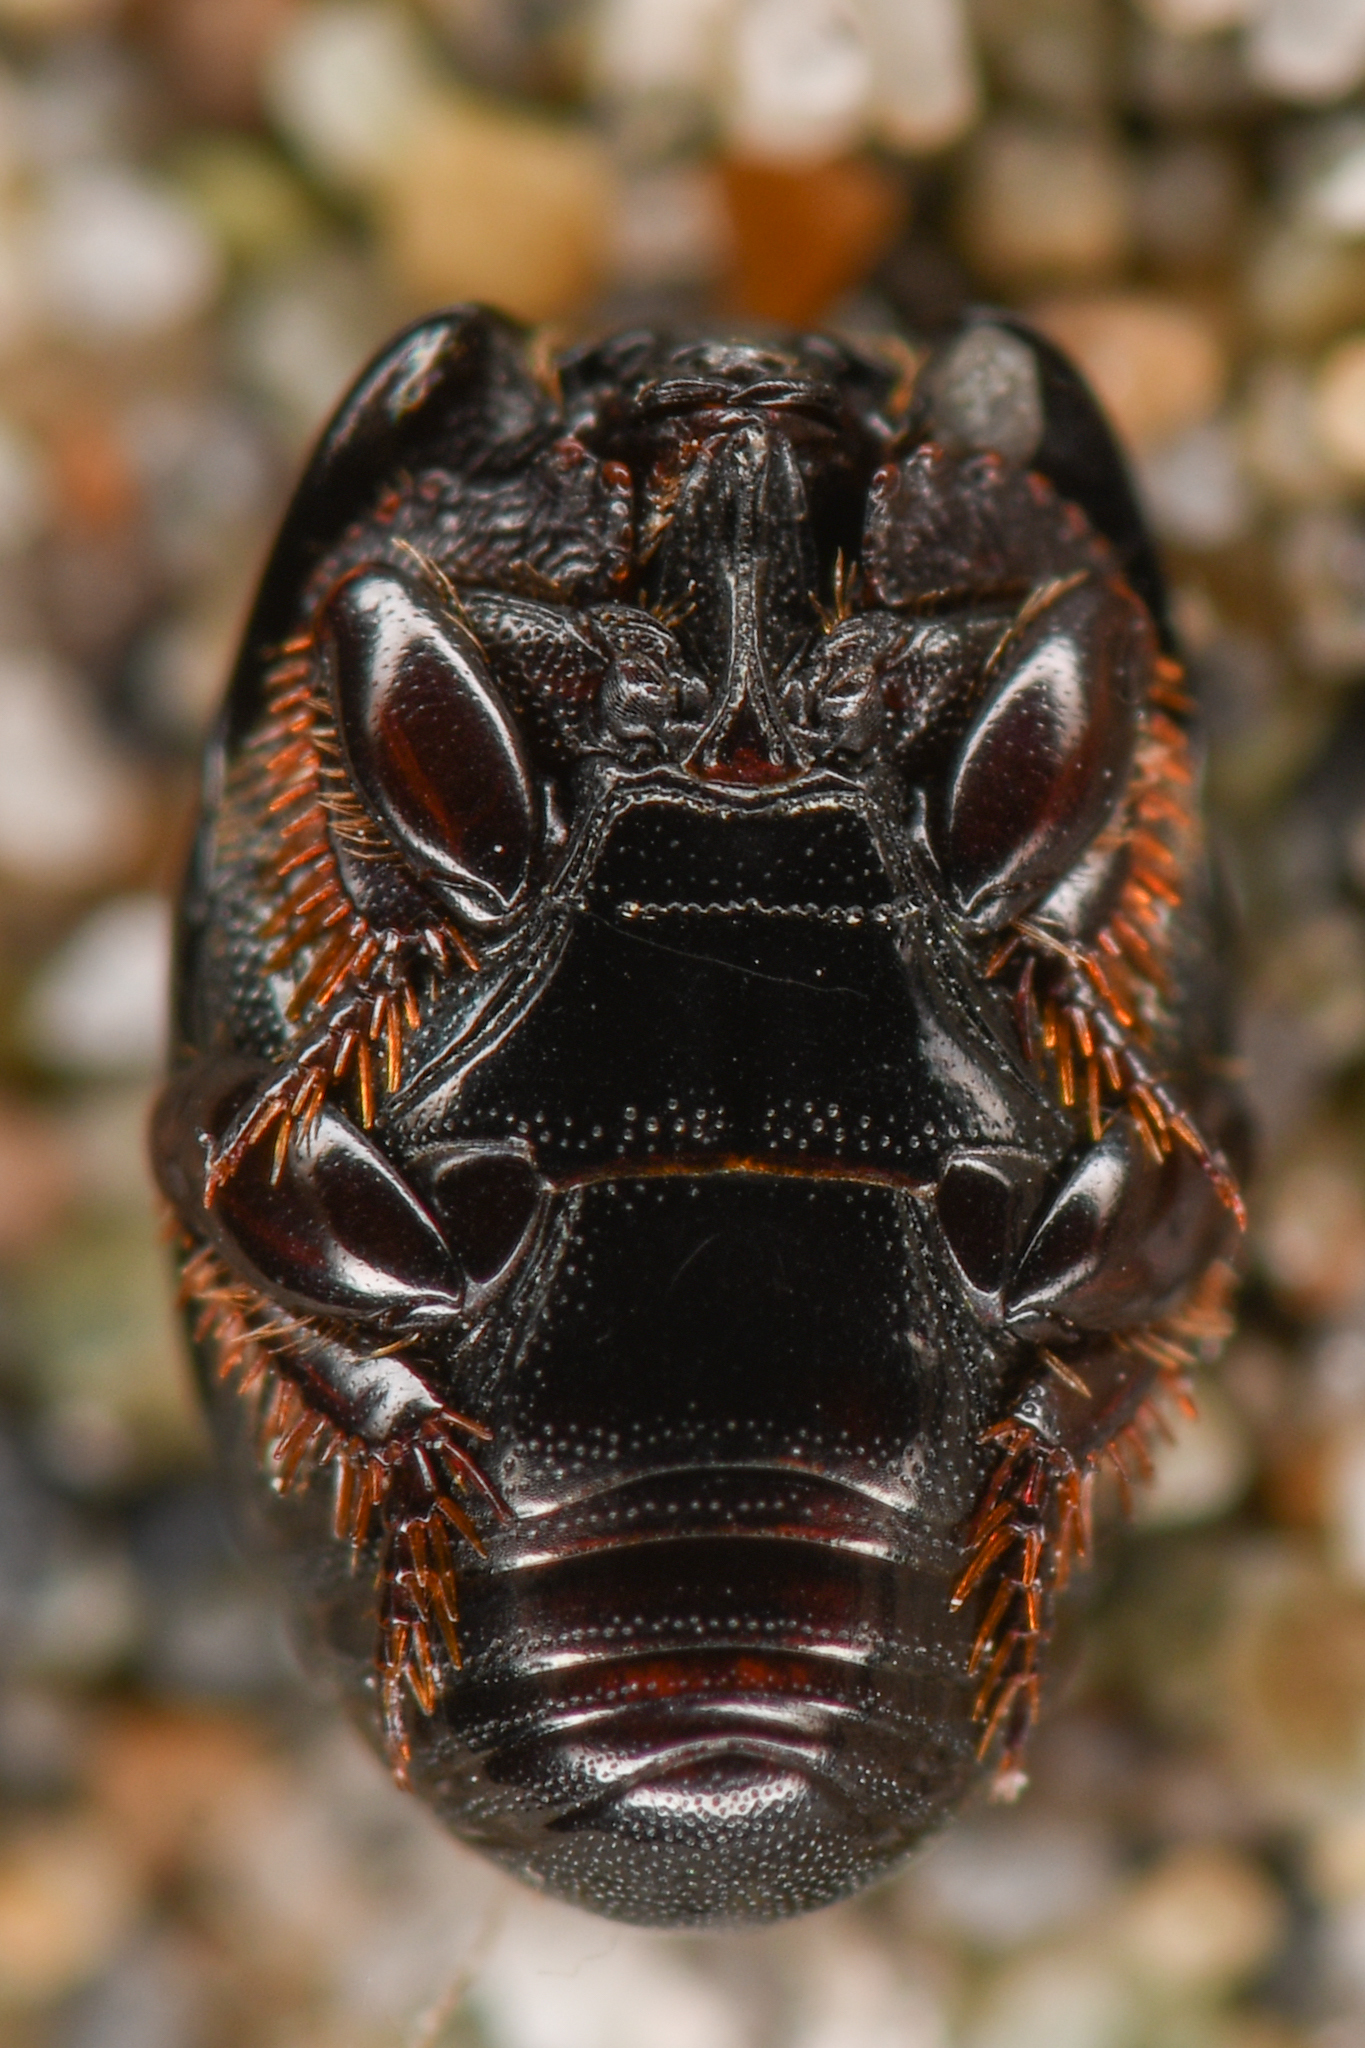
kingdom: Animalia
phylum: Arthropoda
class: Insecta
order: Coleoptera
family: Histeridae
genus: Hypocaccus
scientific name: Hypocaccus lucidulus
